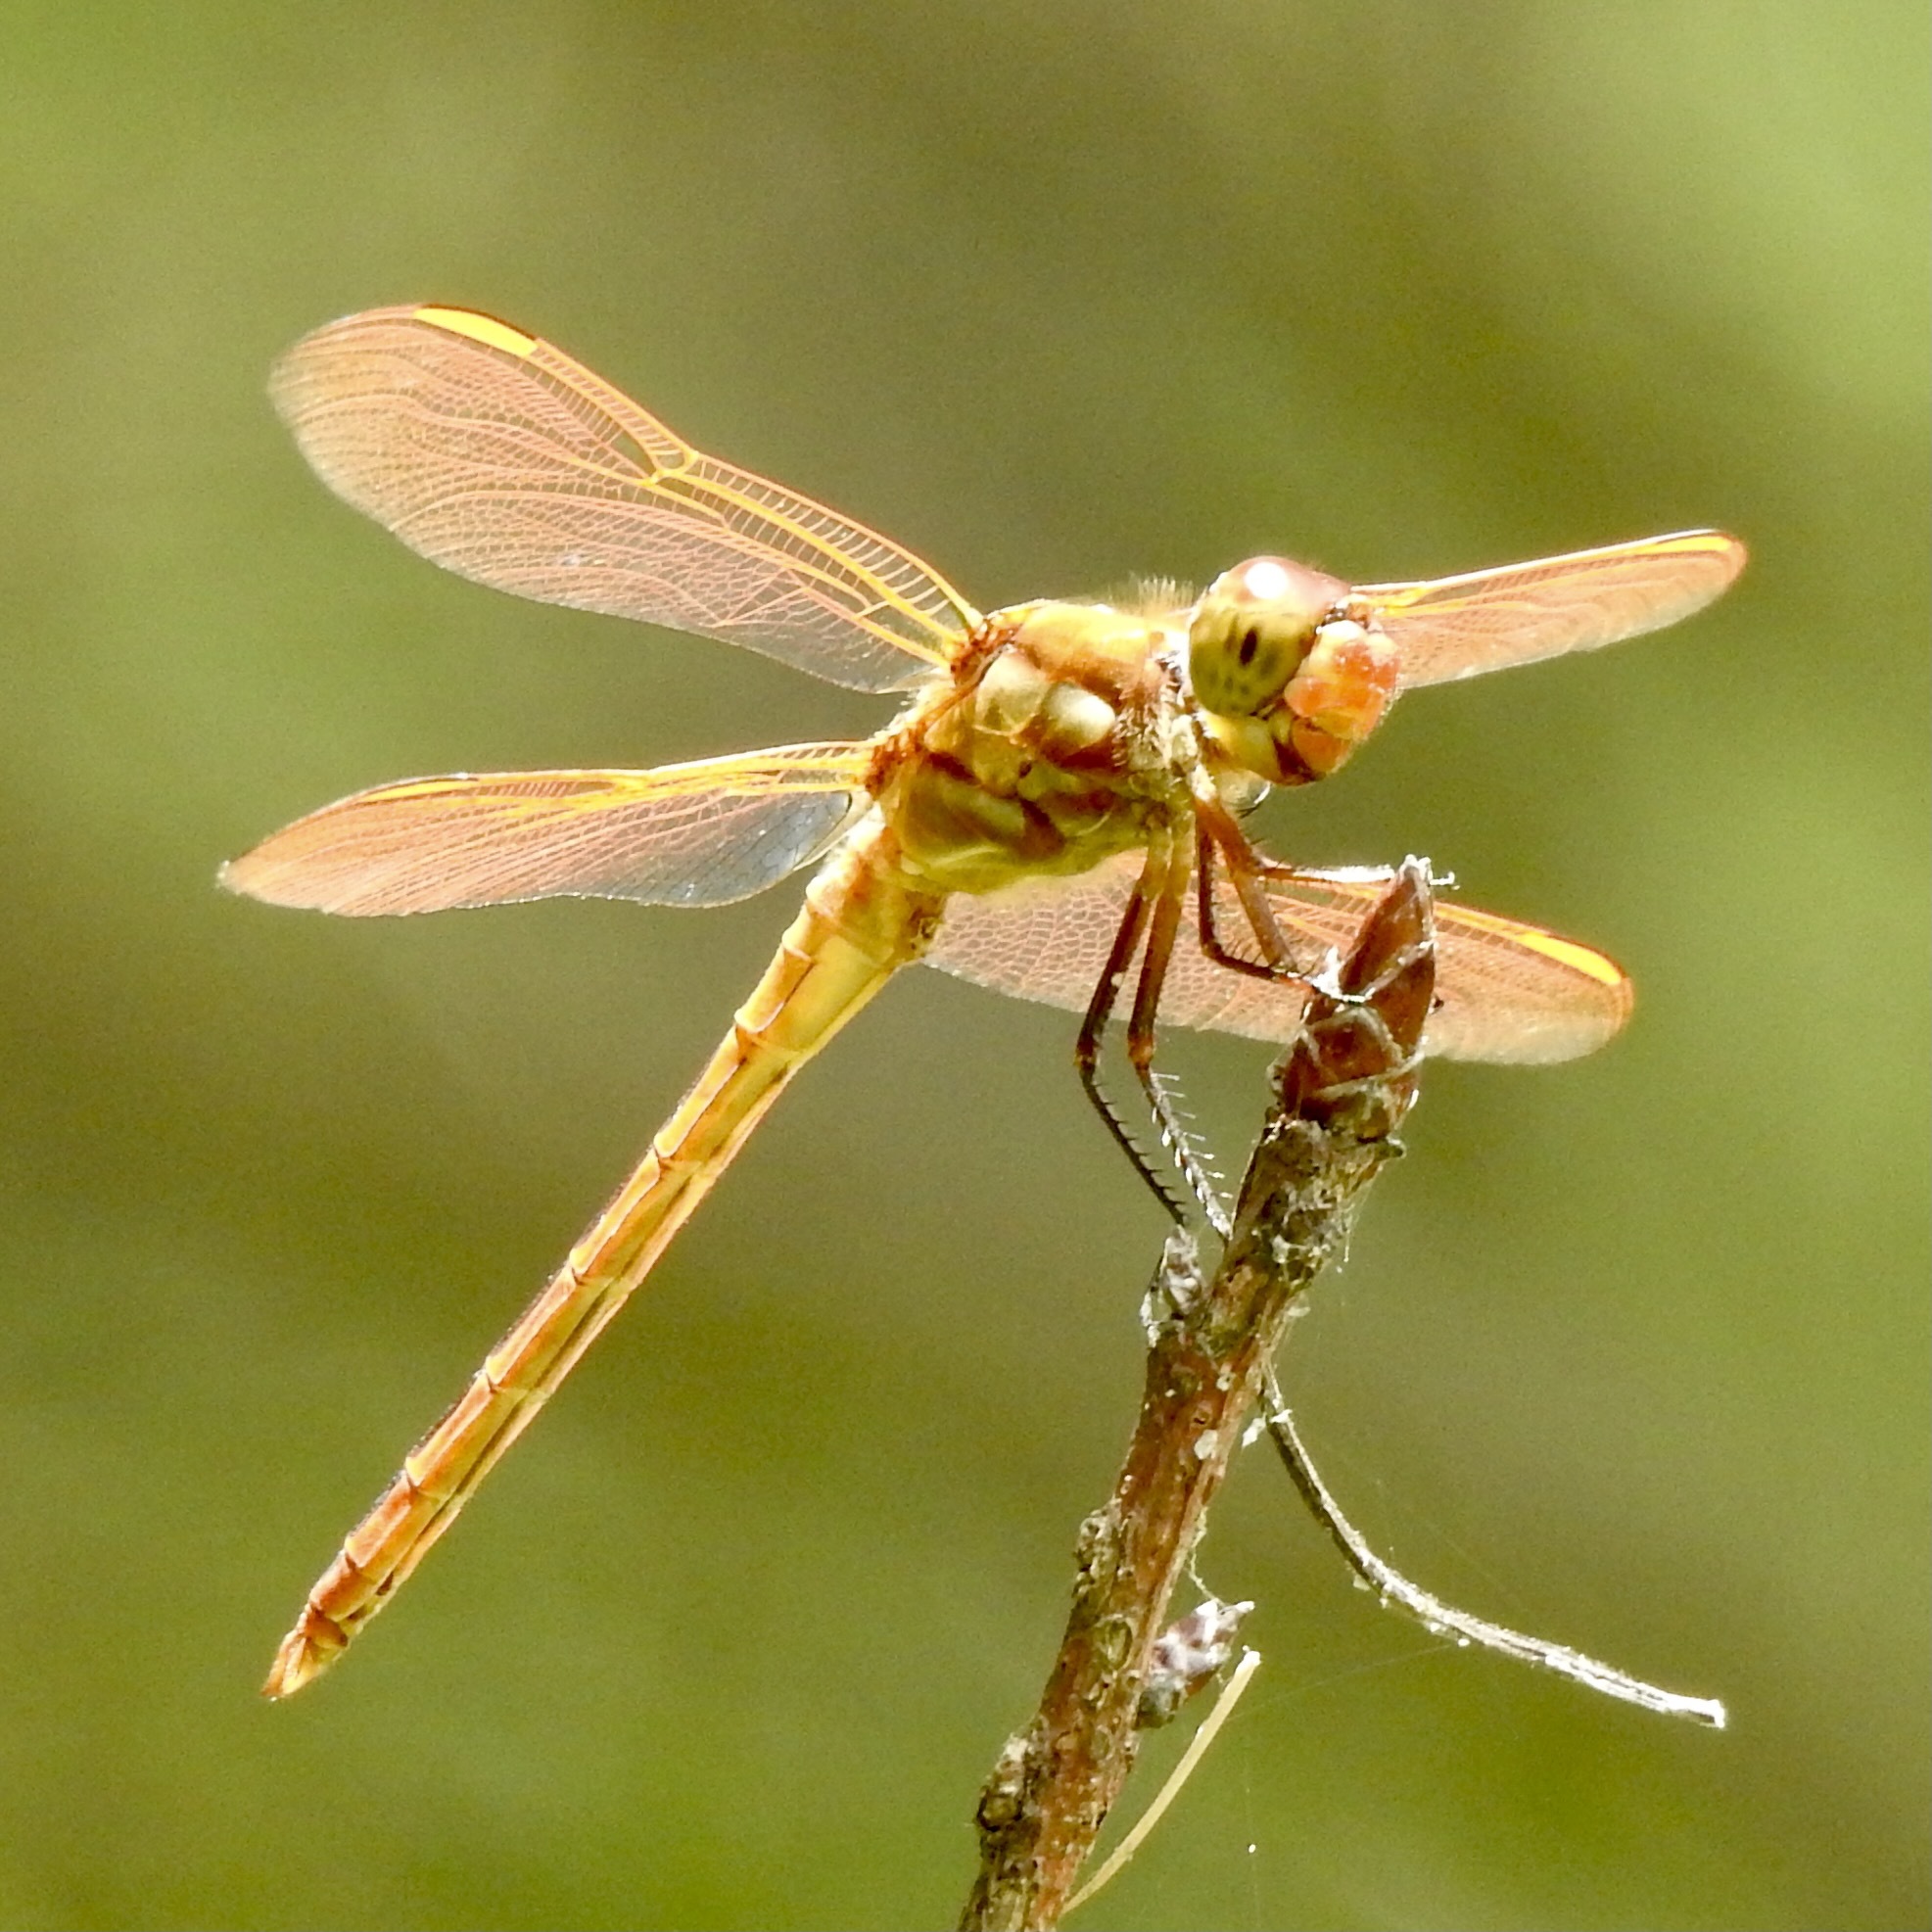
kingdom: Animalia
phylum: Arthropoda
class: Insecta
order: Odonata
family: Libellulidae
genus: Libellula
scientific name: Libellula auripennis
